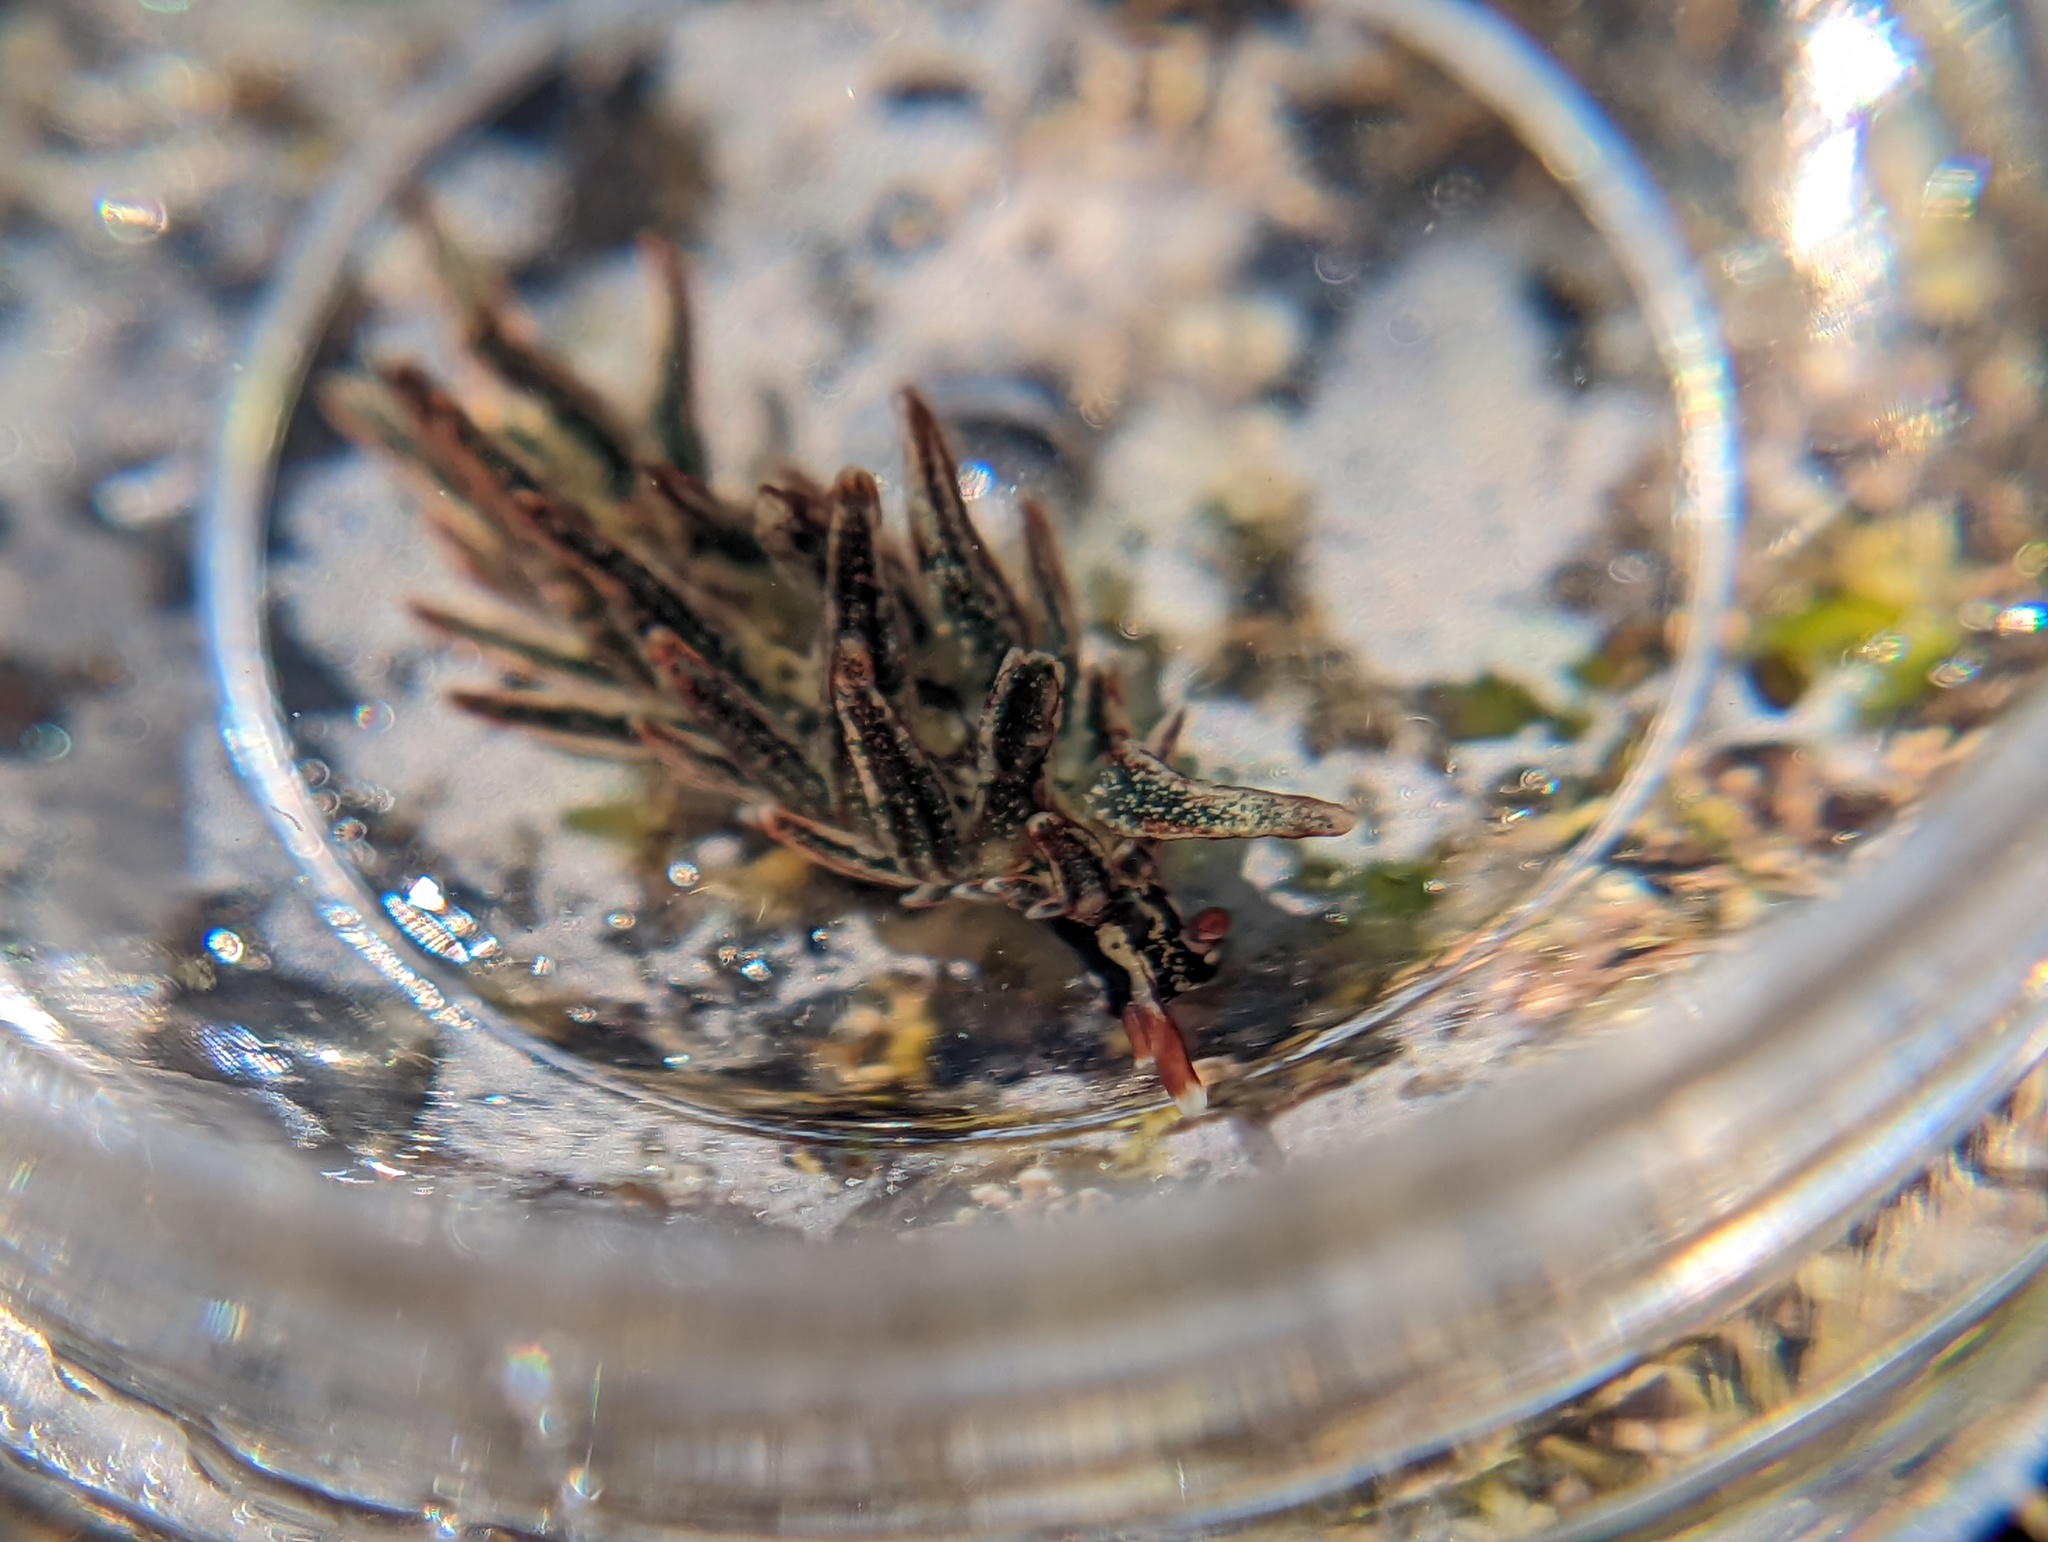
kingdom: Animalia
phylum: Mollusca
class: Gastropoda
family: Hermaeidae
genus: Aplysiopsis
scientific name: Aplysiopsis enteromorphae
